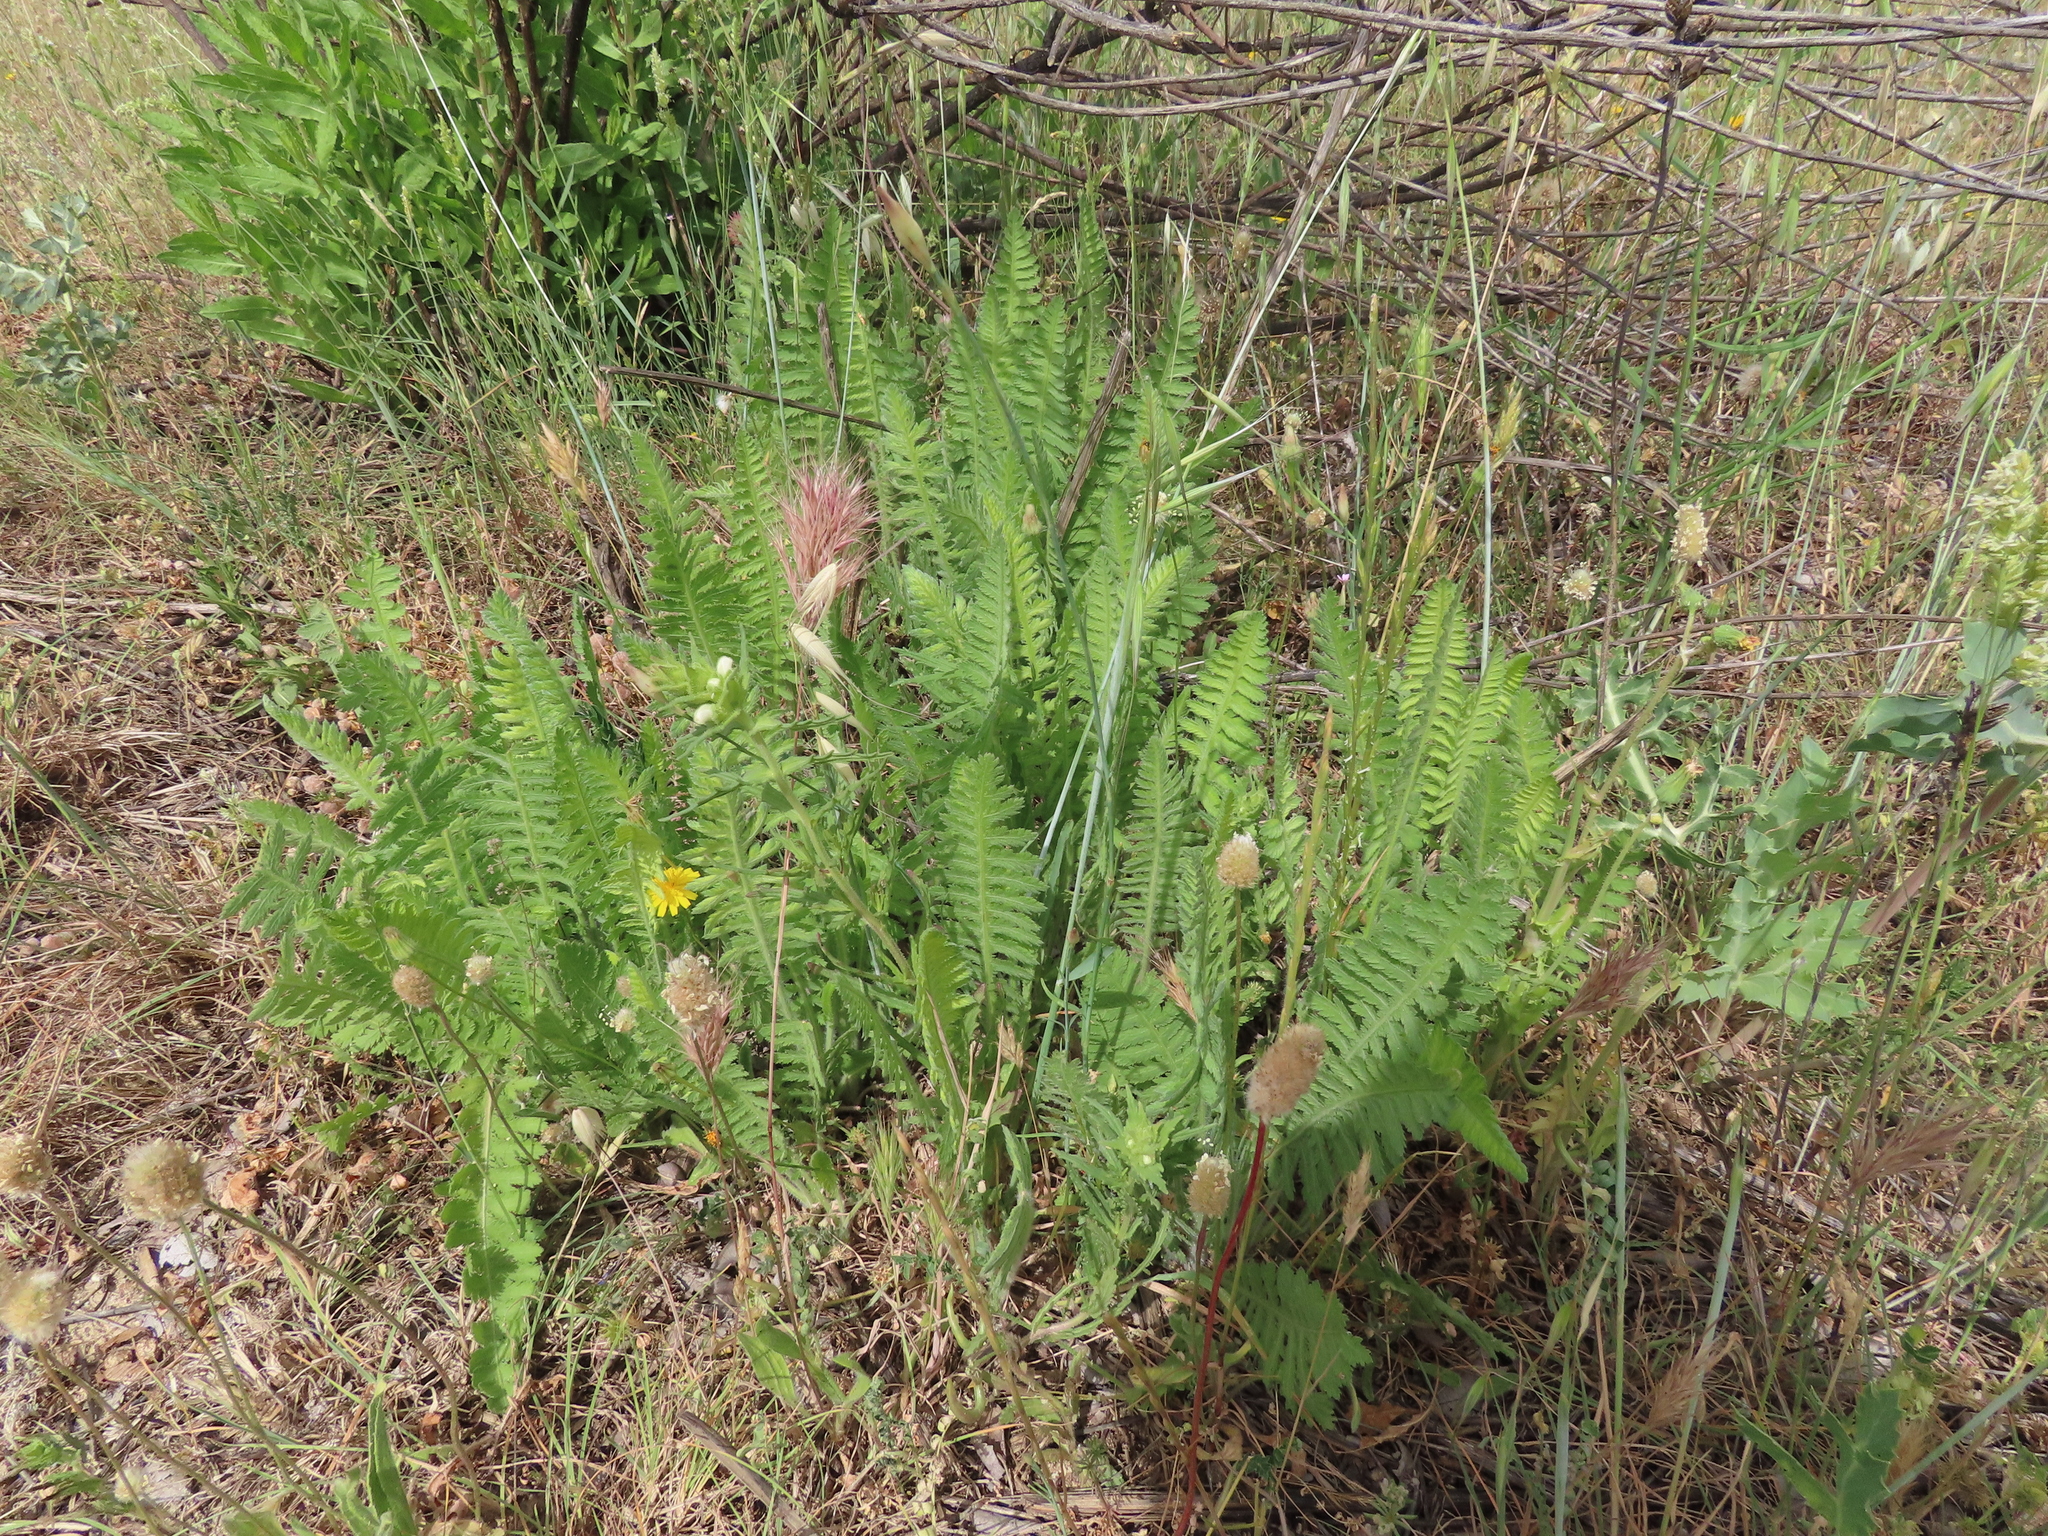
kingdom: Plantae
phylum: Tracheophyta
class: Magnoliopsida
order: Asterales
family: Asteraceae
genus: Achillea
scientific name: Achillea filipendulina
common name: Fernleaf yarrow
